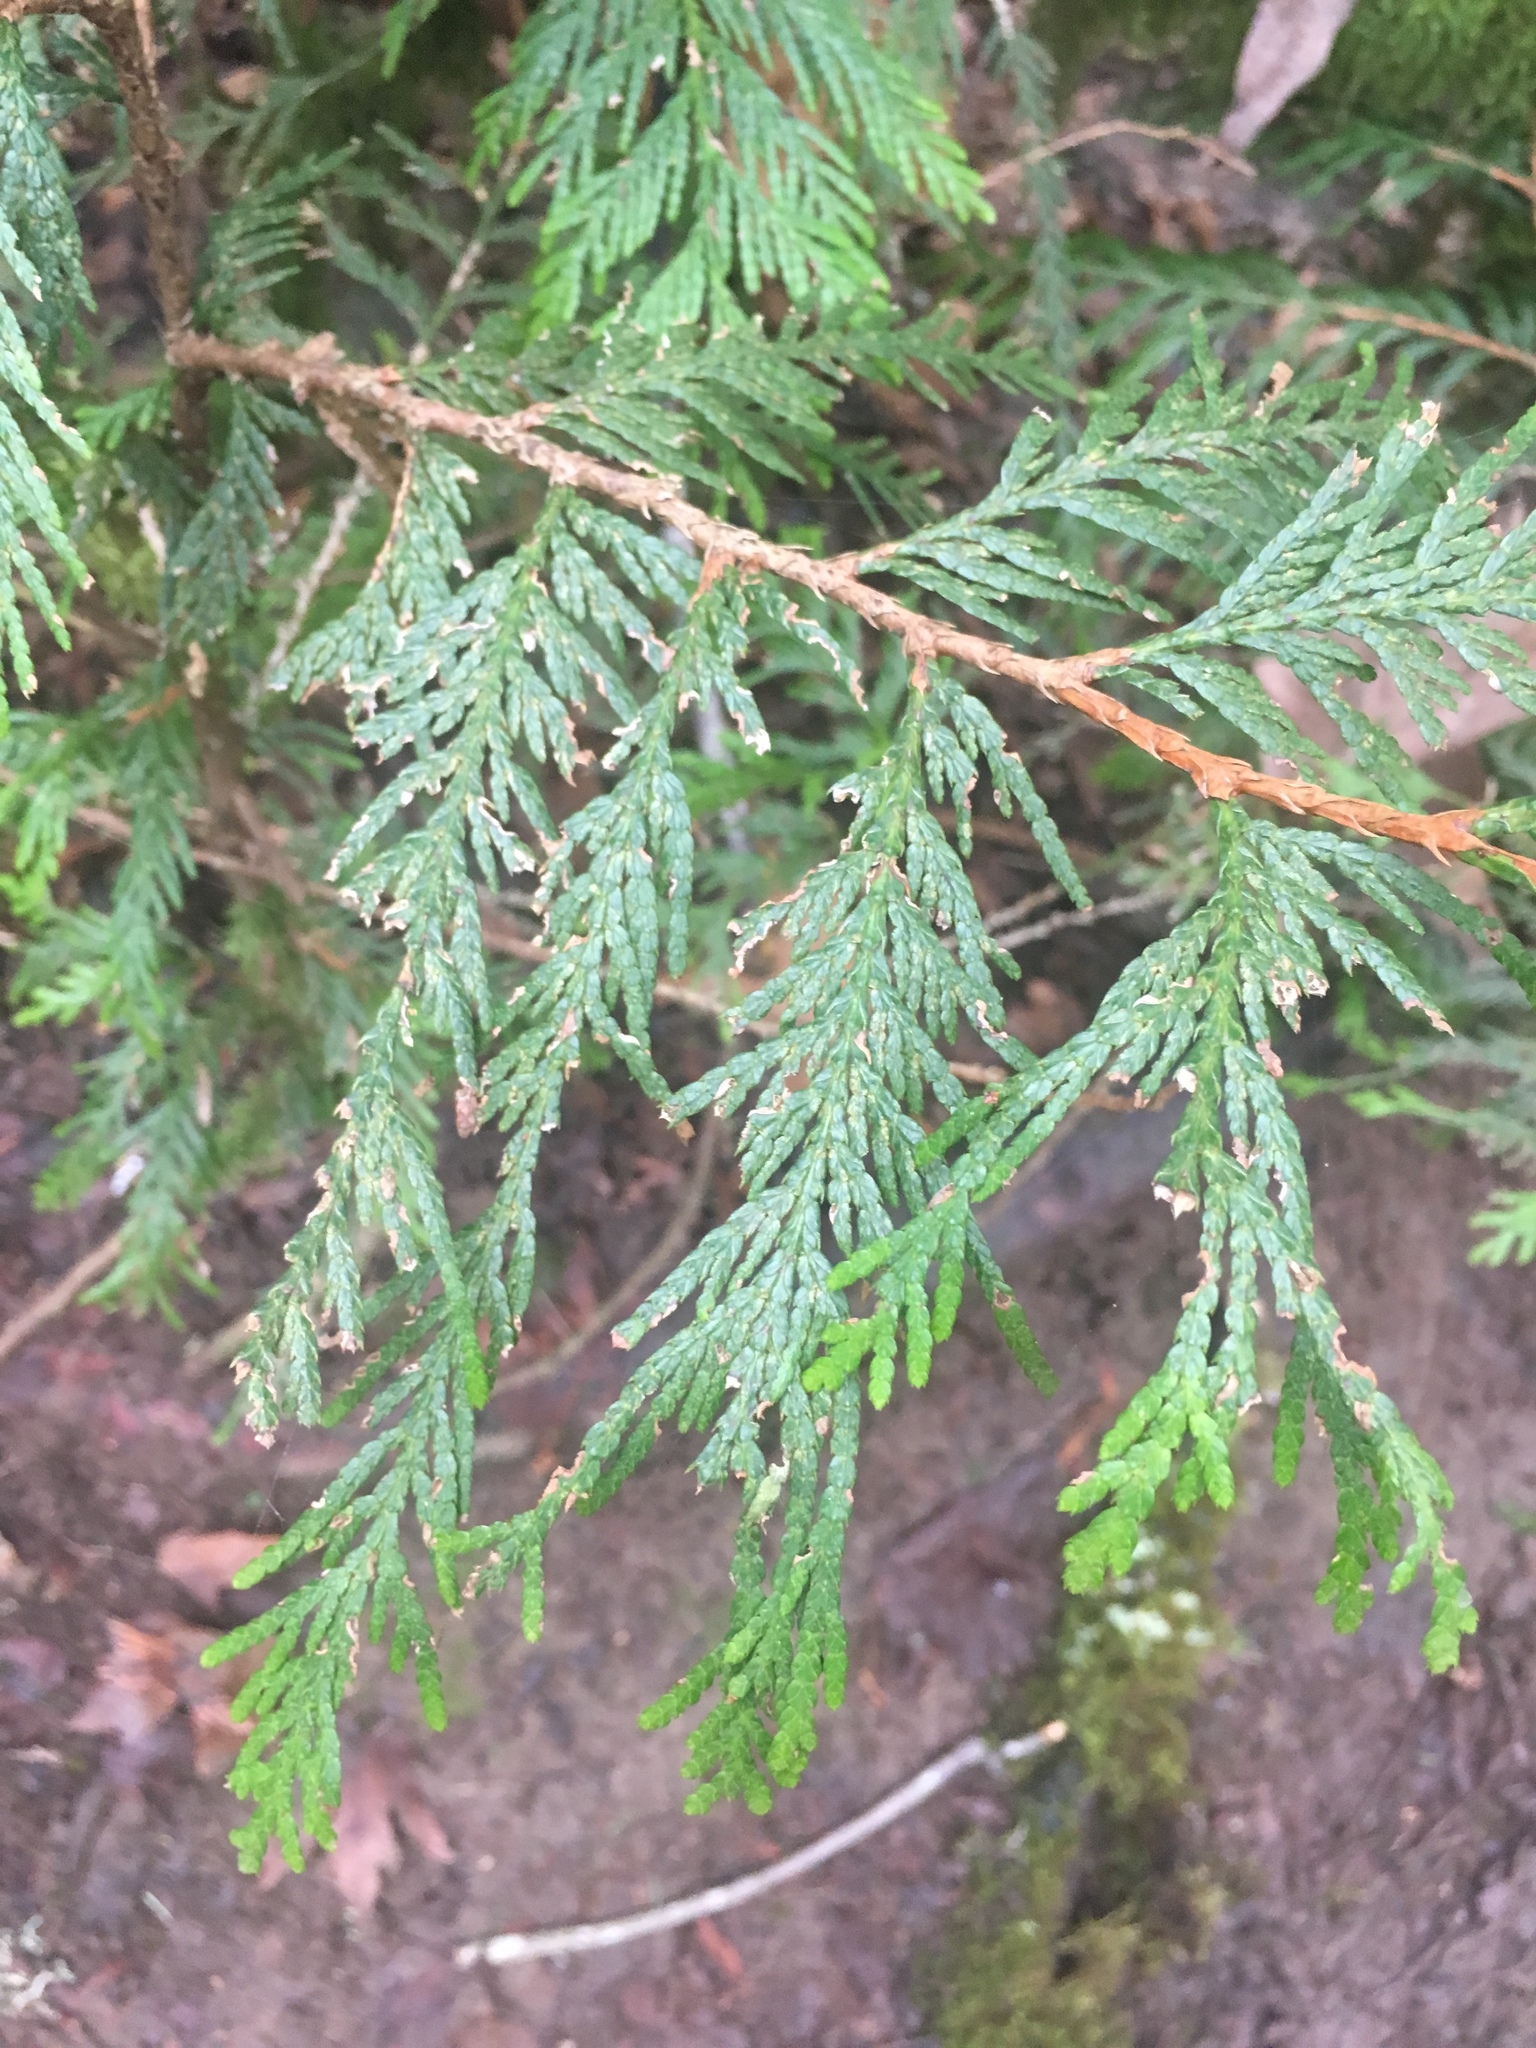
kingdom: Plantae
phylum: Tracheophyta
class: Pinopsida
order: Pinales
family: Cupressaceae
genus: Thuja
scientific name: Thuja plicata
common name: Western red-cedar
